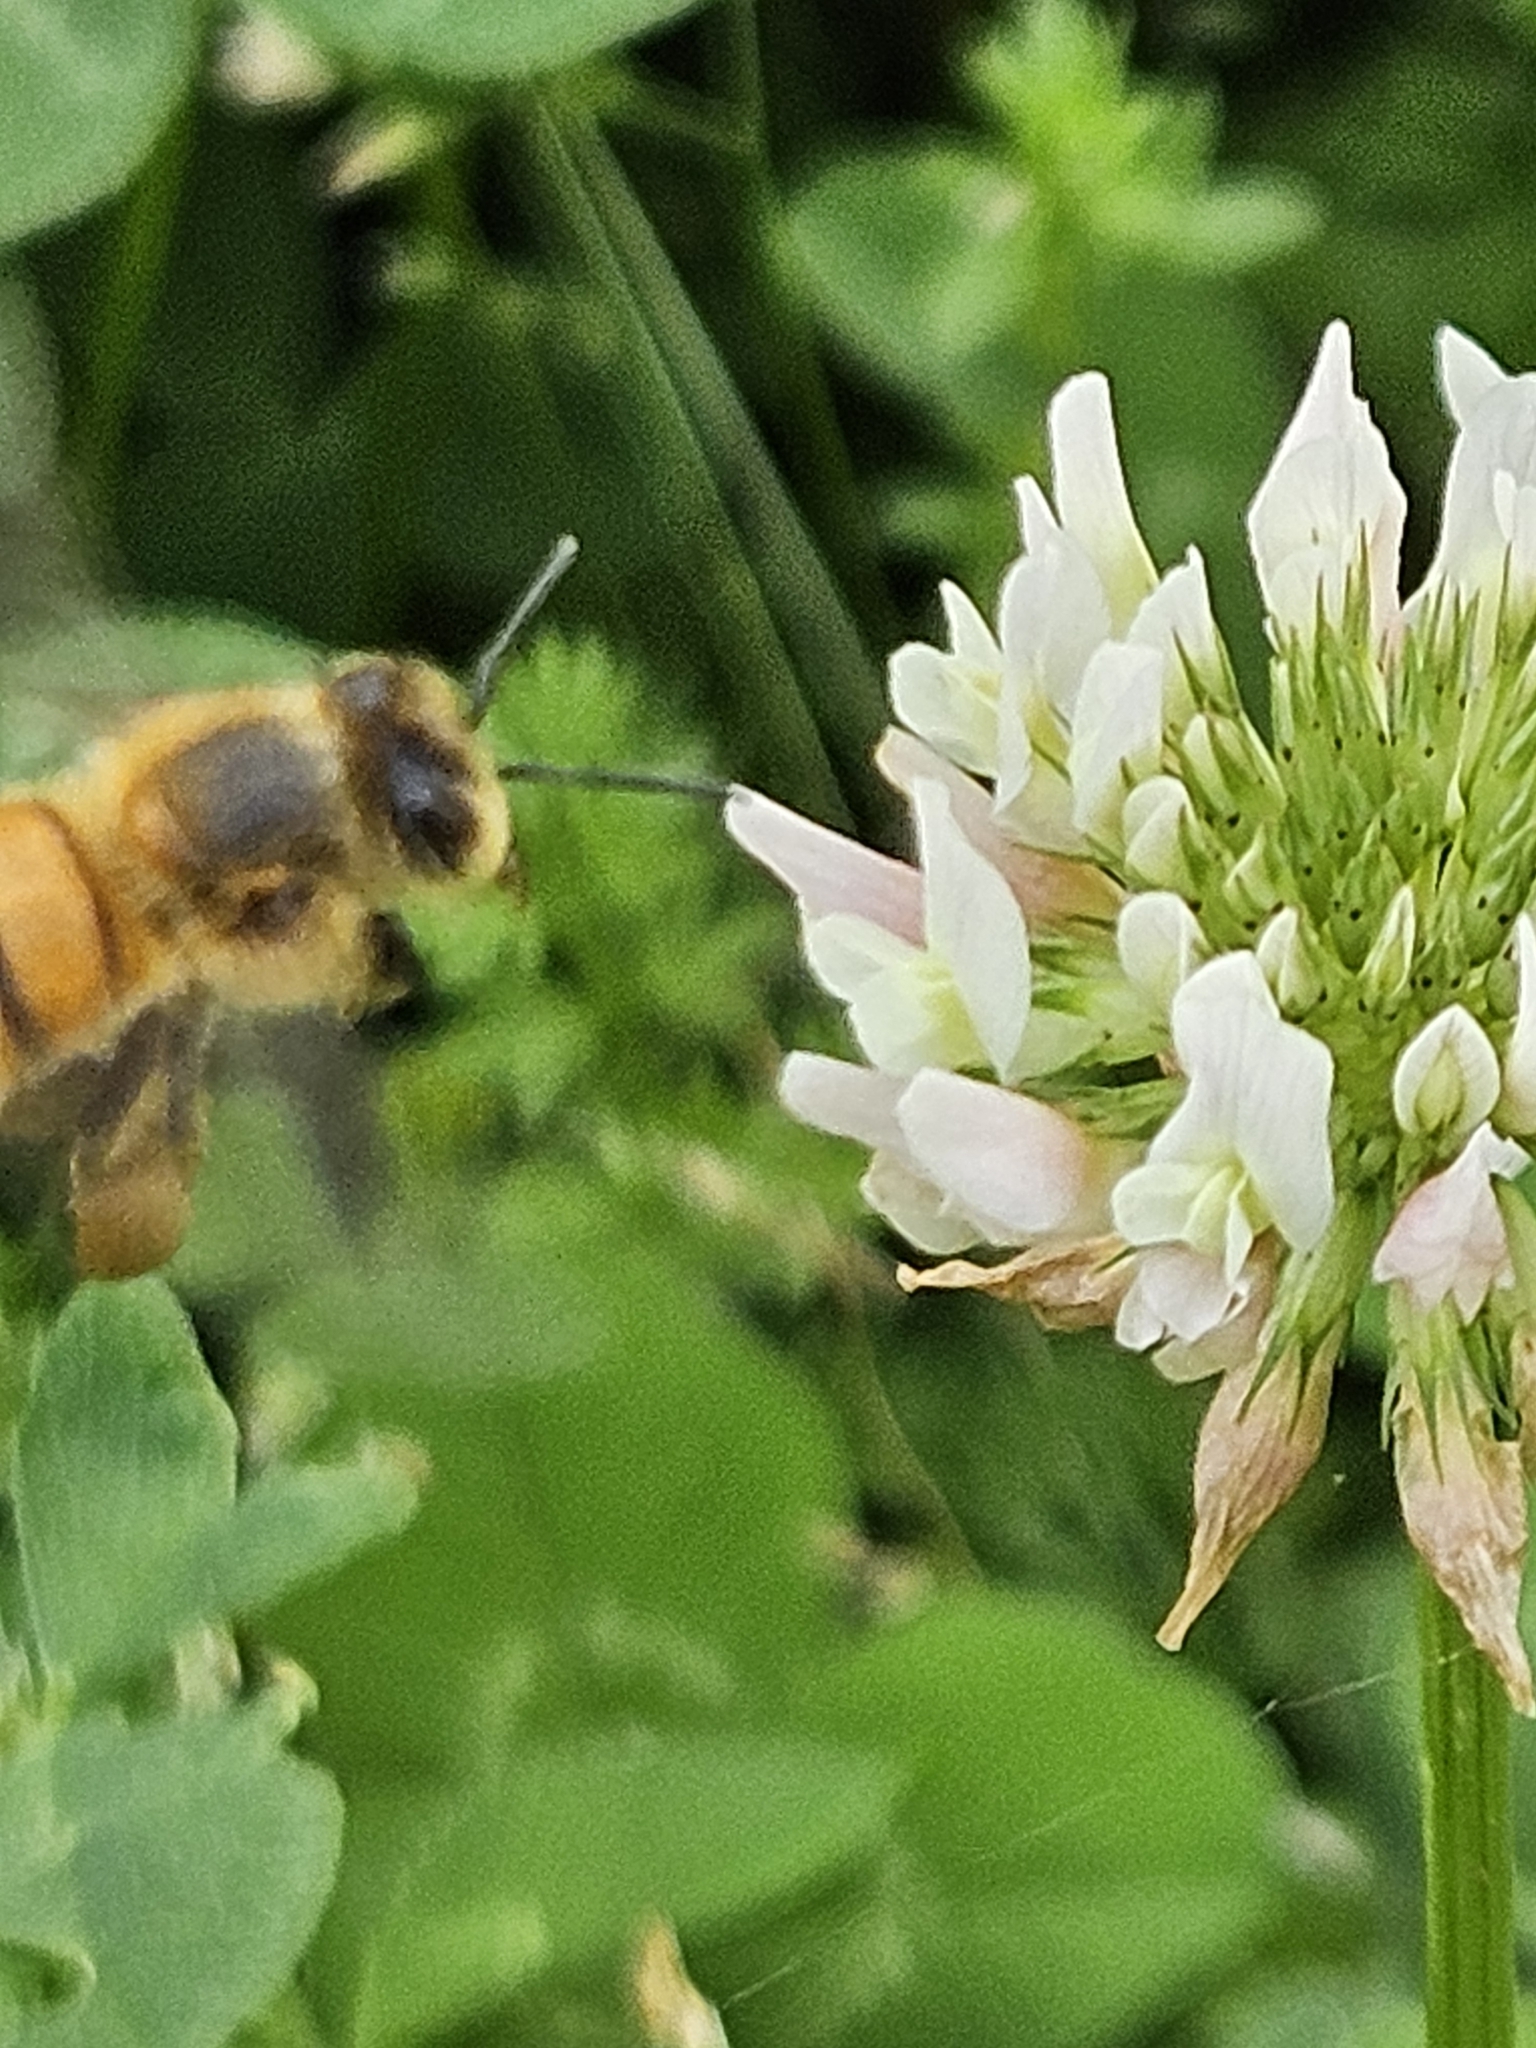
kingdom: Animalia
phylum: Arthropoda
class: Insecta
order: Hymenoptera
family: Apidae
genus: Apis
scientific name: Apis mellifera
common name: Honey bee
